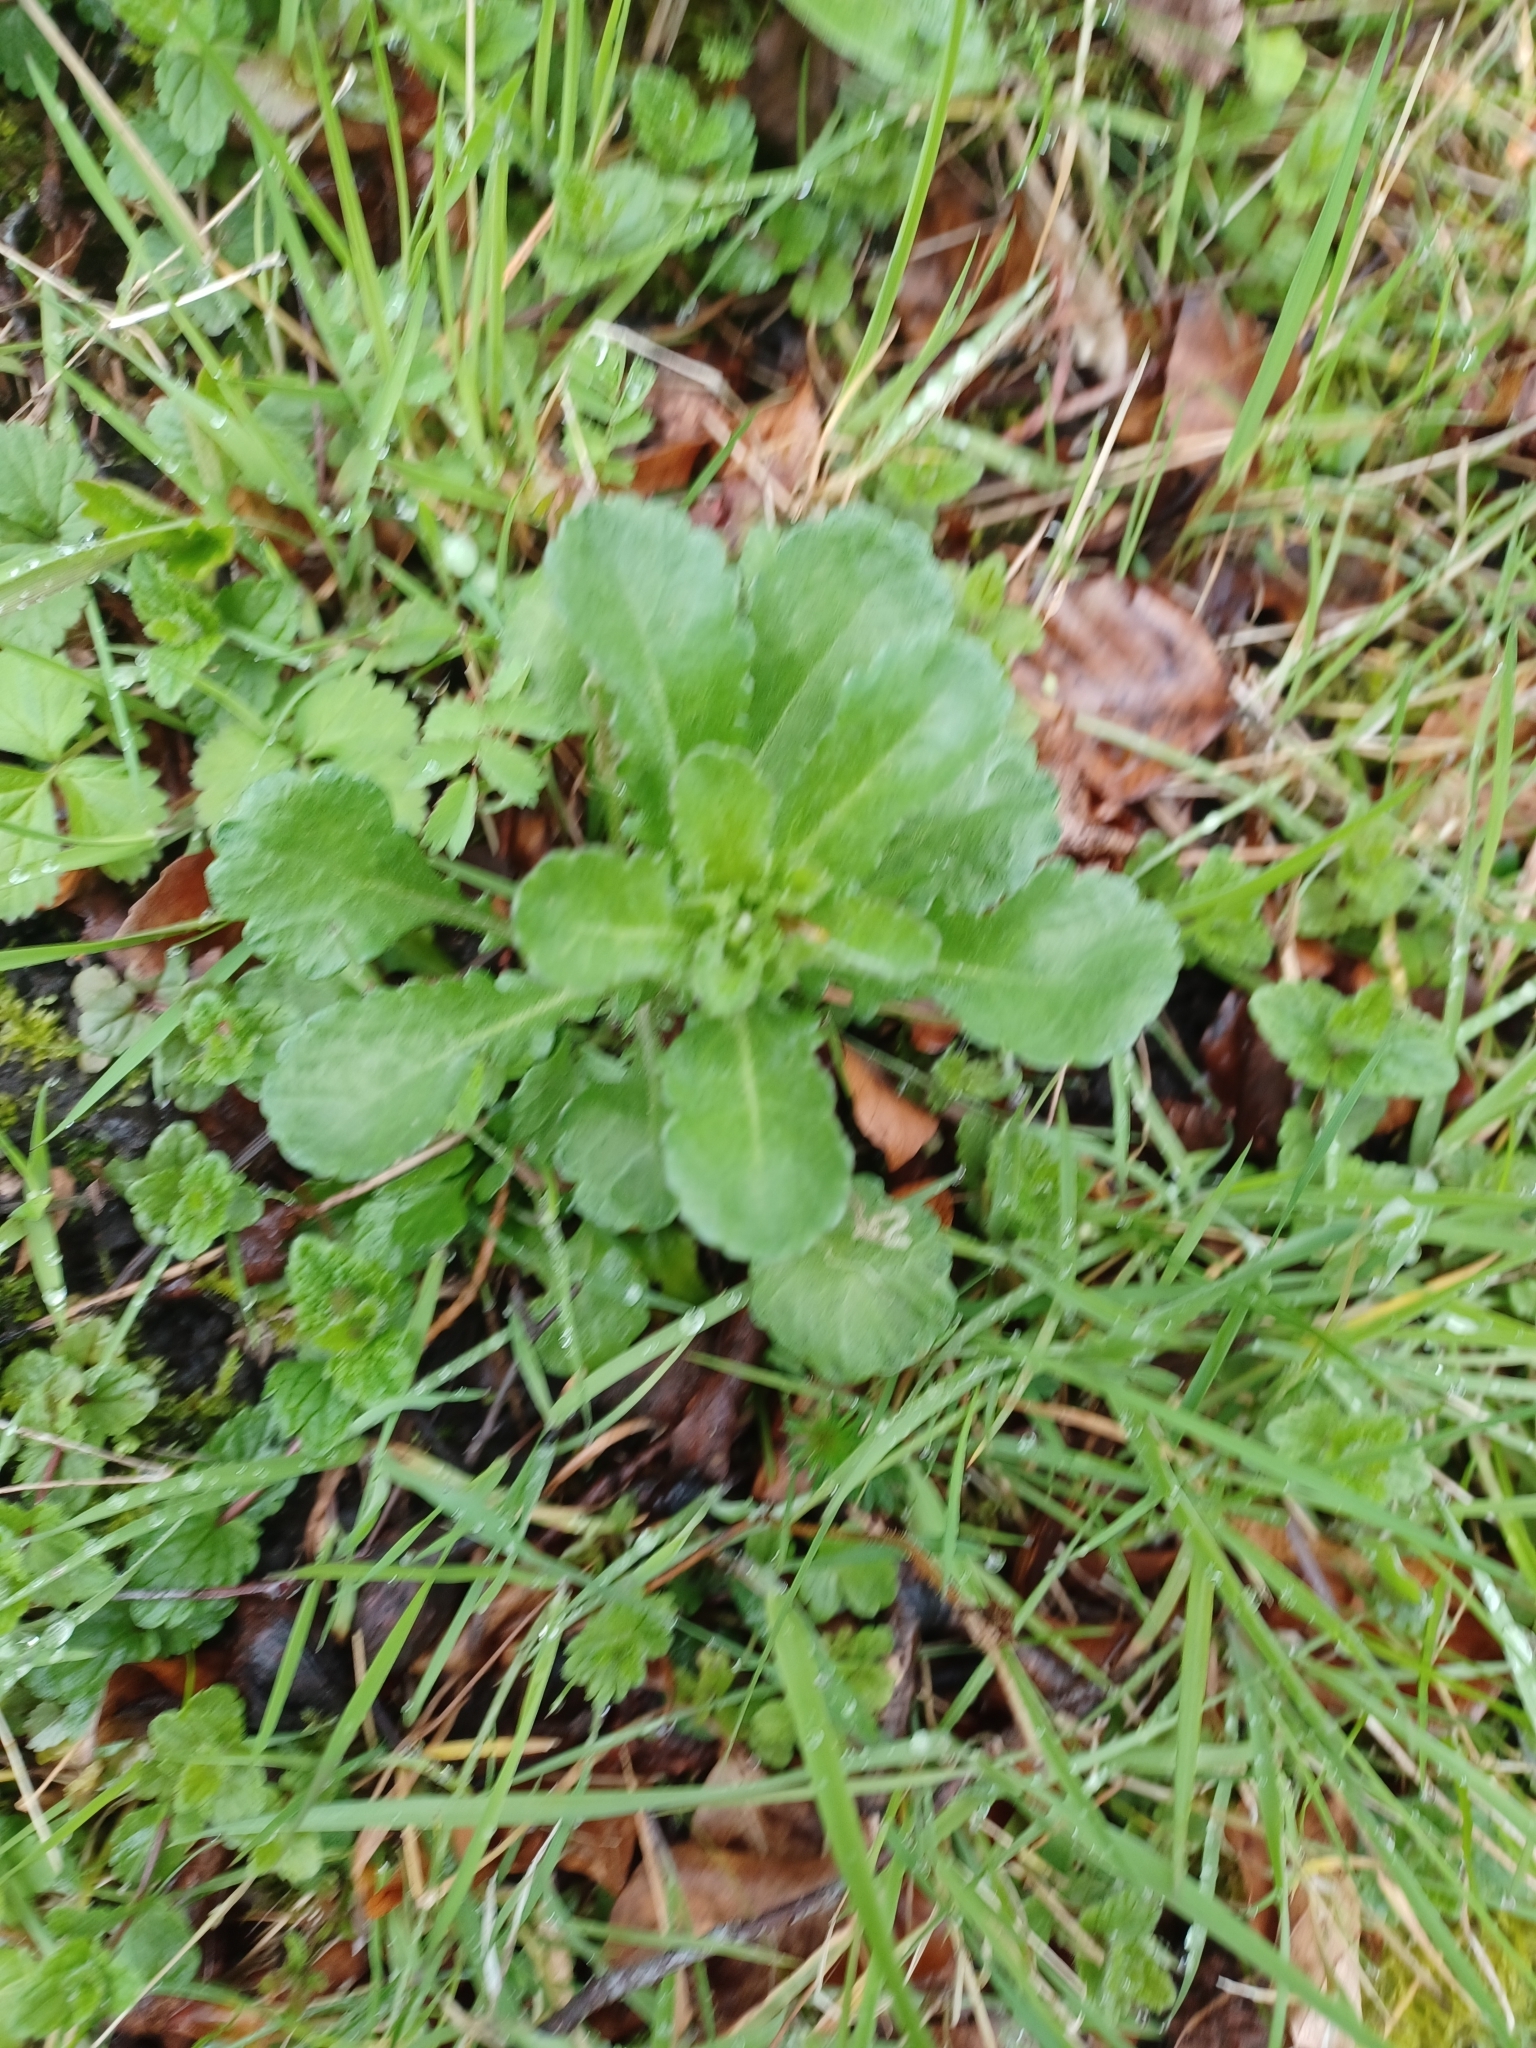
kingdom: Plantae
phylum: Tracheophyta
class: Magnoliopsida
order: Asterales
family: Asteraceae
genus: Leucanthemum
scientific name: Leucanthemum vulgare
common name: Oxeye daisy
